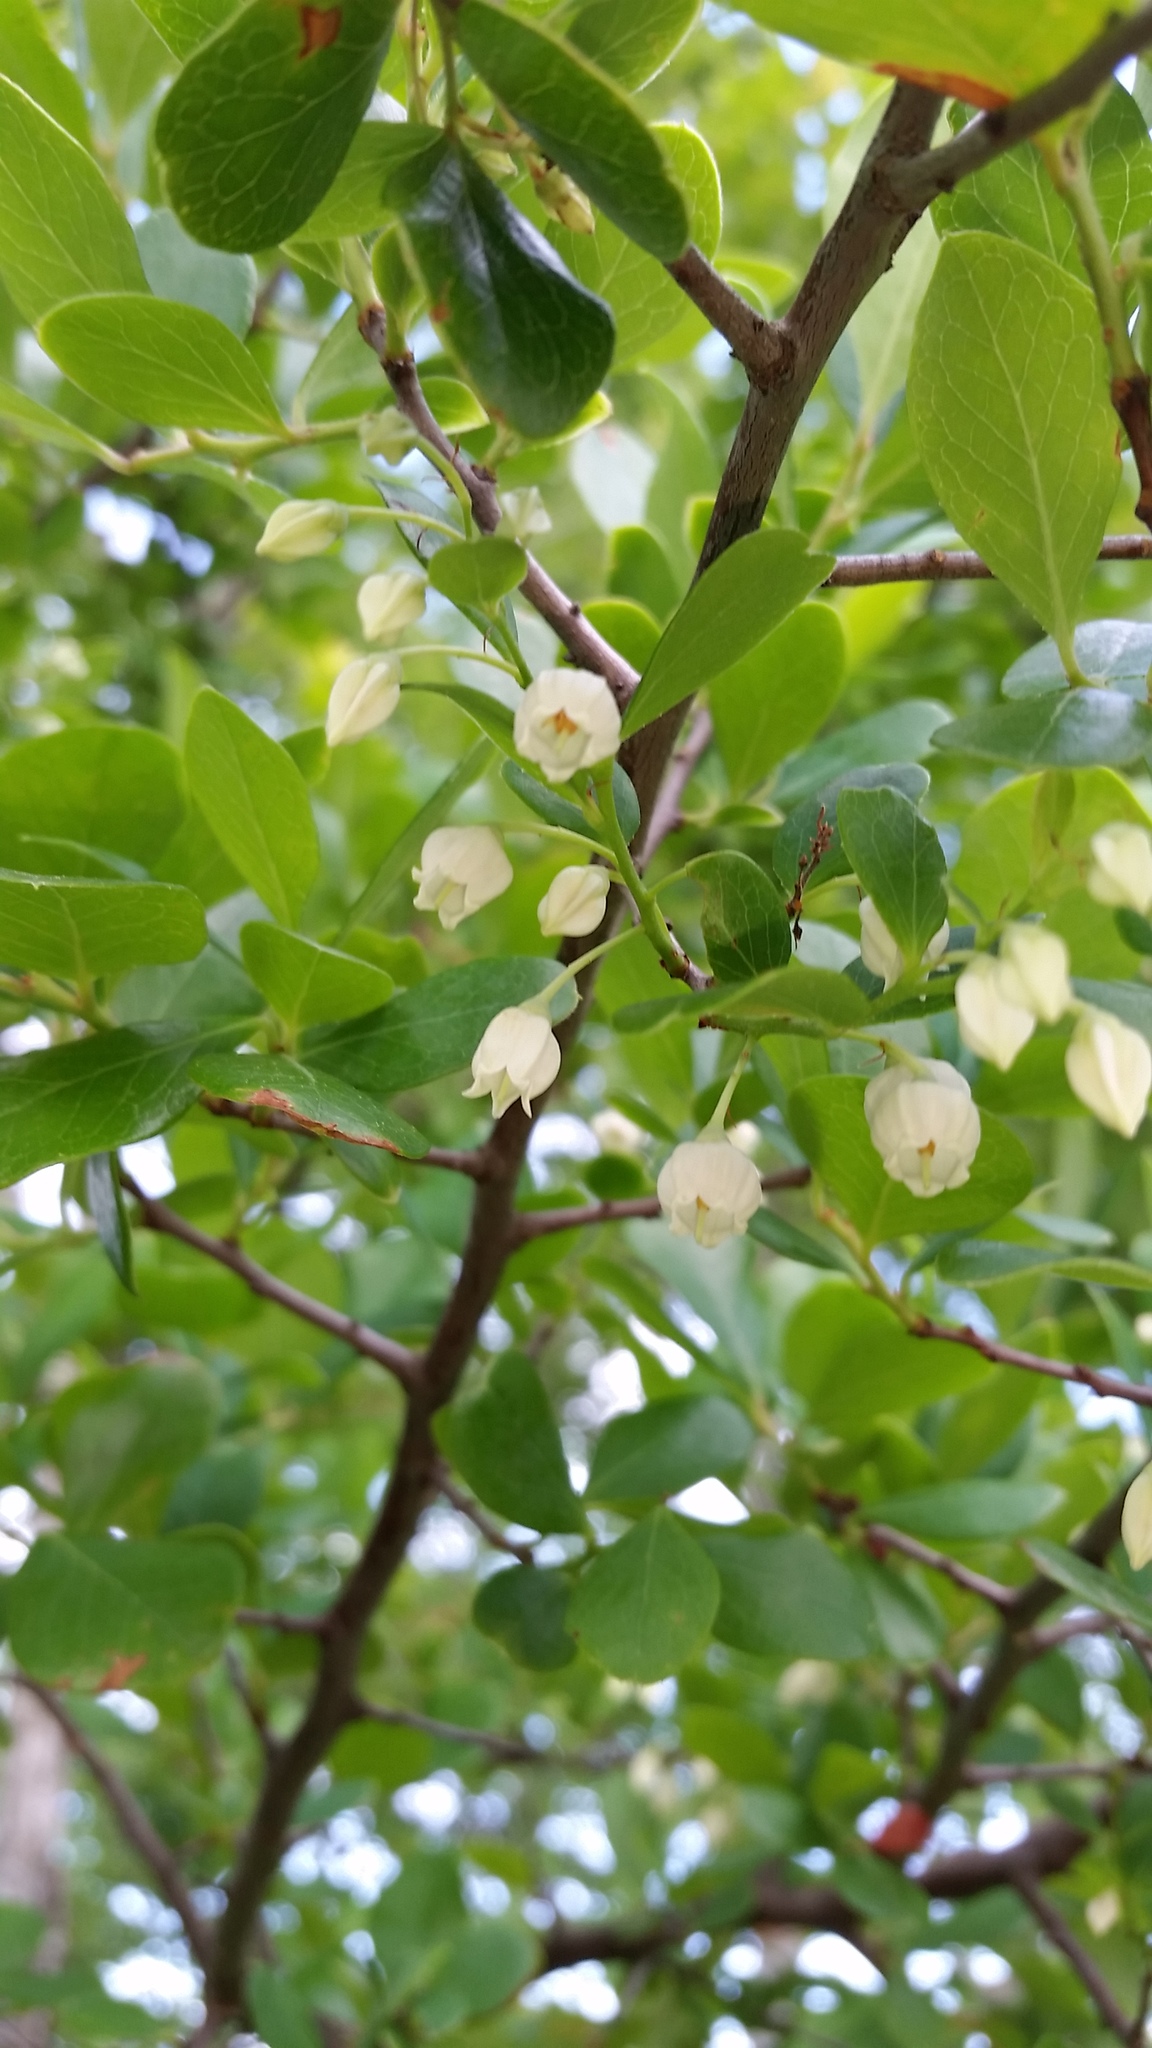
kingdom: Plantae
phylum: Tracheophyta
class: Magnoliopsida
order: Ericales
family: Ericaceae
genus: Vaccinium
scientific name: Vaccinium arboreum
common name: Farkleberry
